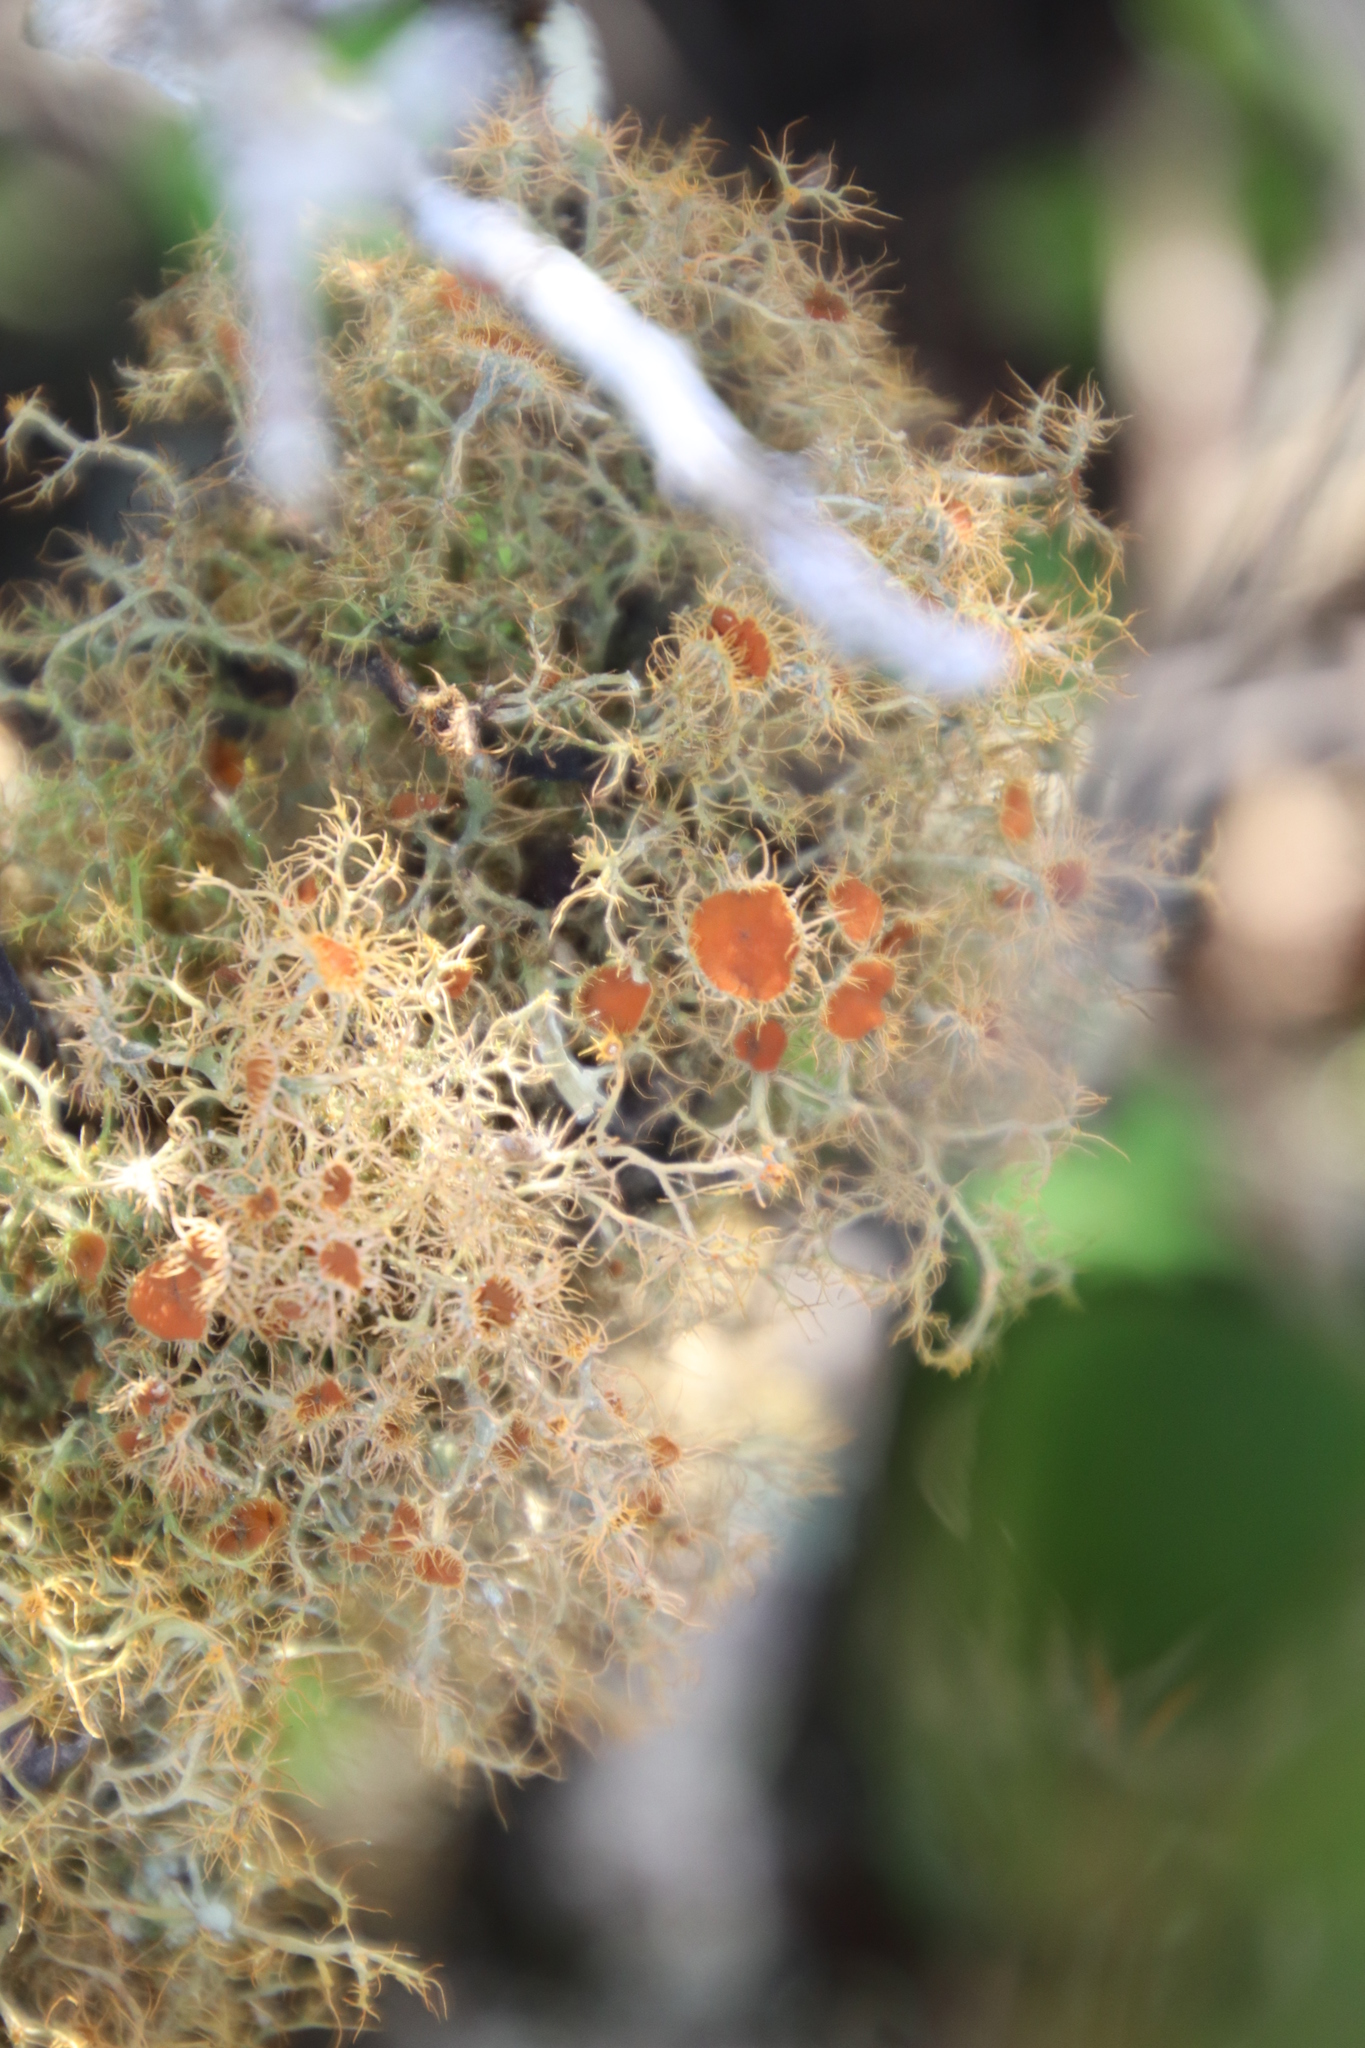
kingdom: Fungi
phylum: Ascomycota
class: Lecanoromycetes
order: Teloschistales
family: Teloschistaceae
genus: Teloschistes
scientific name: Teloschistes capensis
